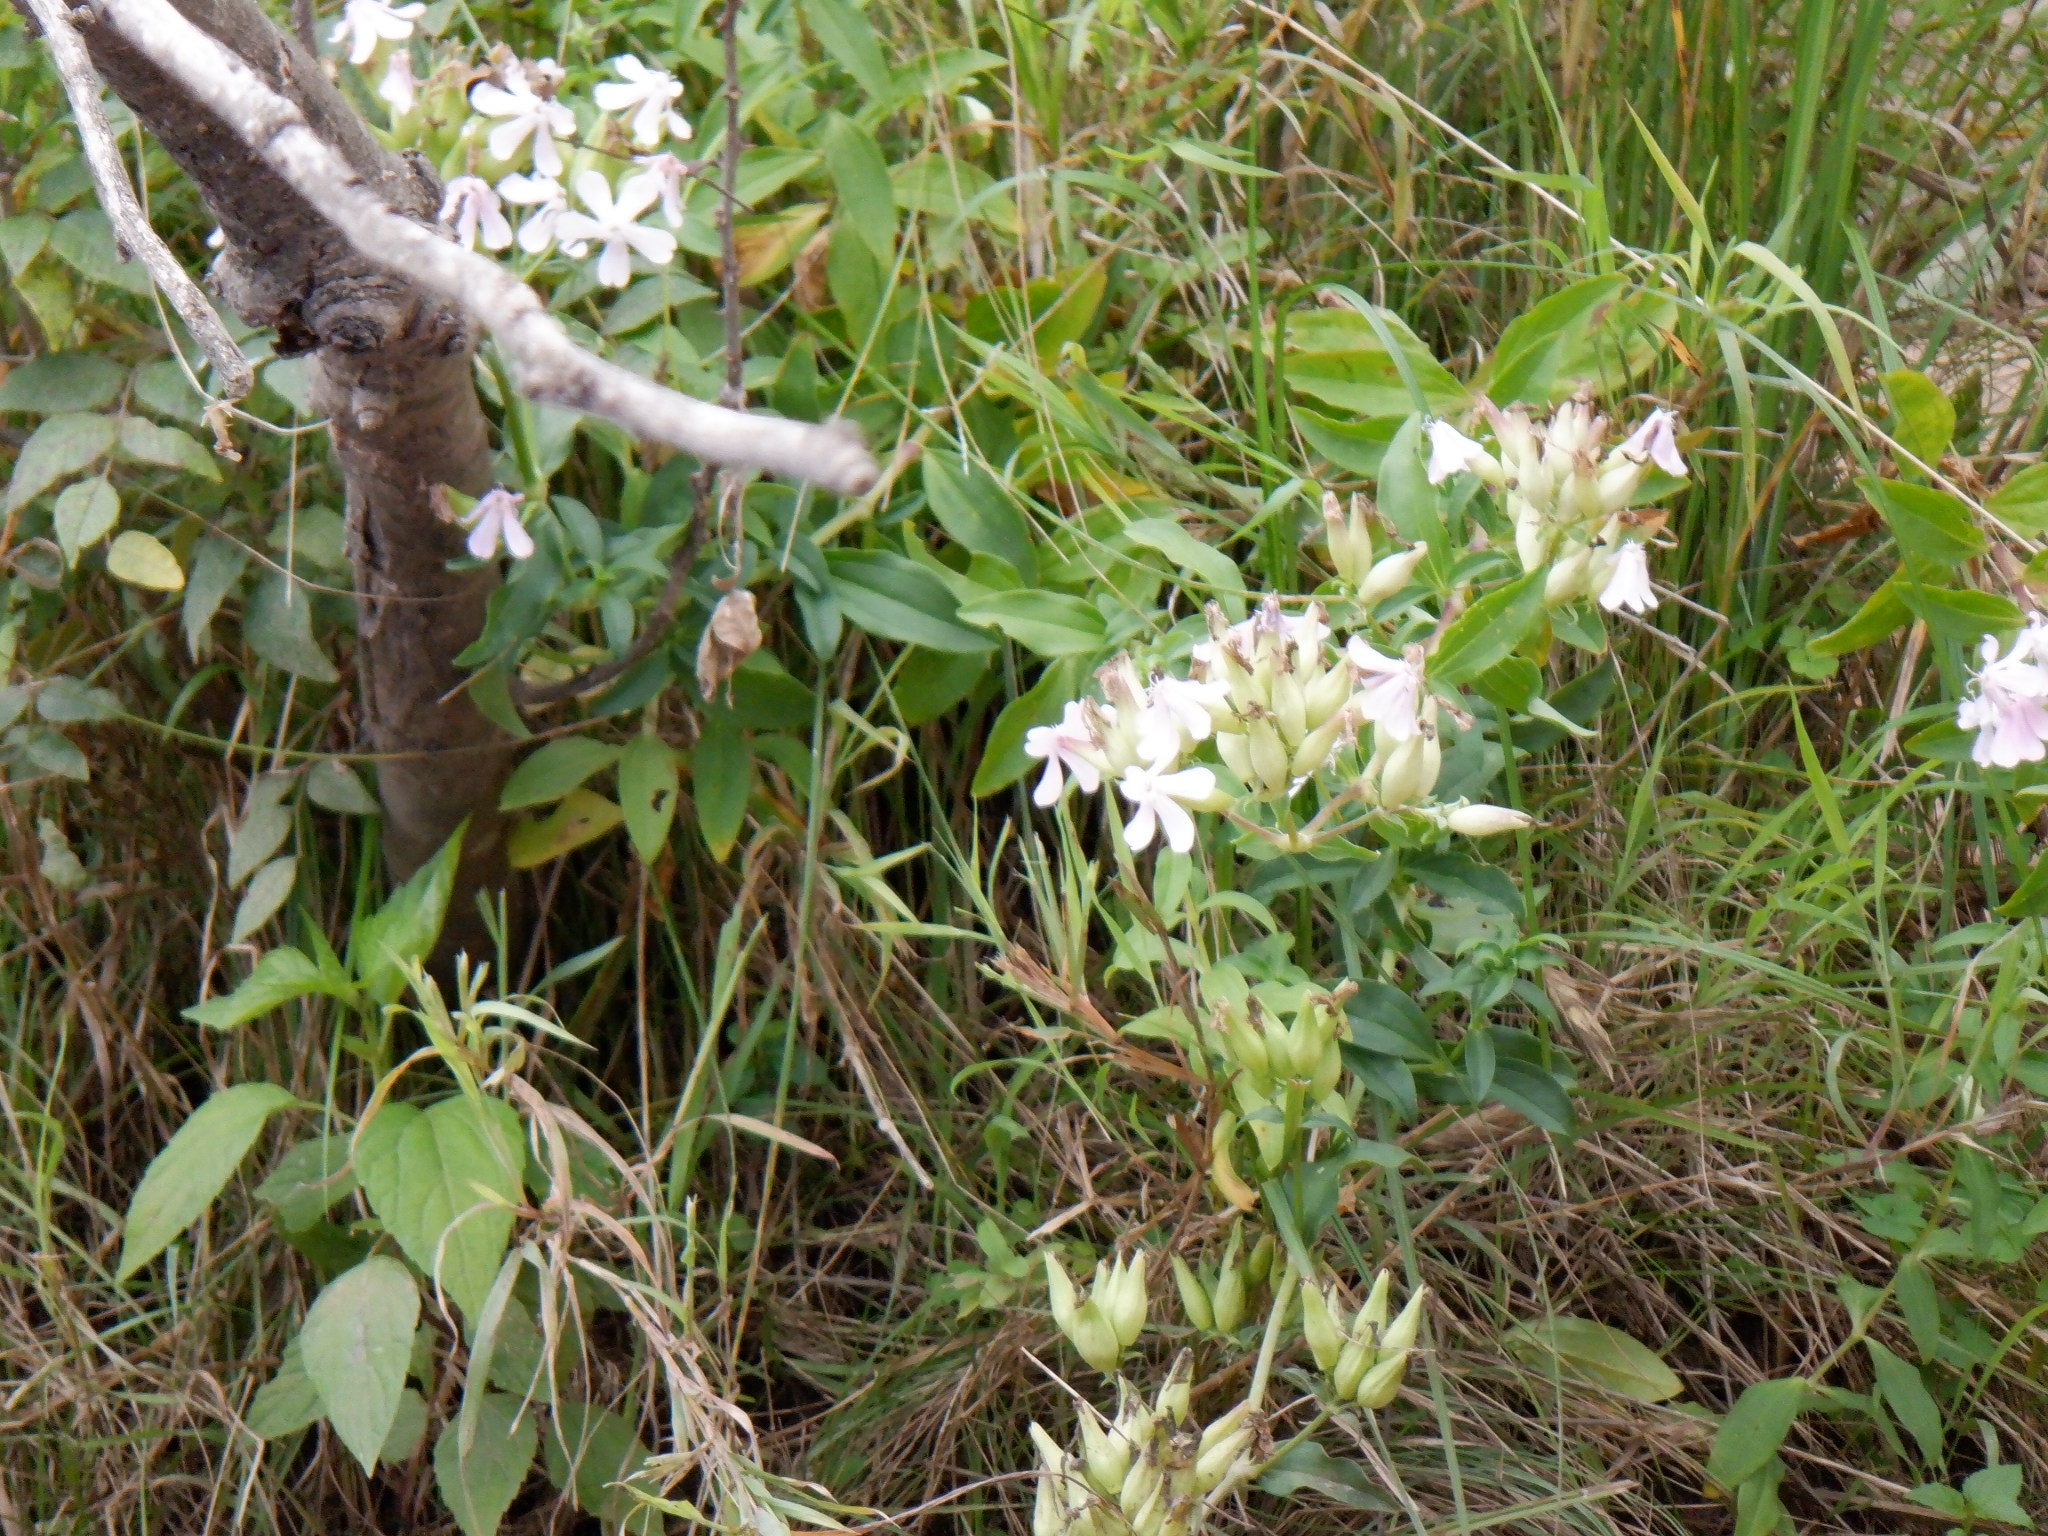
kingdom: Plantae
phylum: Tracheophyta
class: Magnoliopsida
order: Caryophyllales
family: Caryophyllaceae
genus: Saponaria
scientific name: Saponaria officinalis
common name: Soapwort
